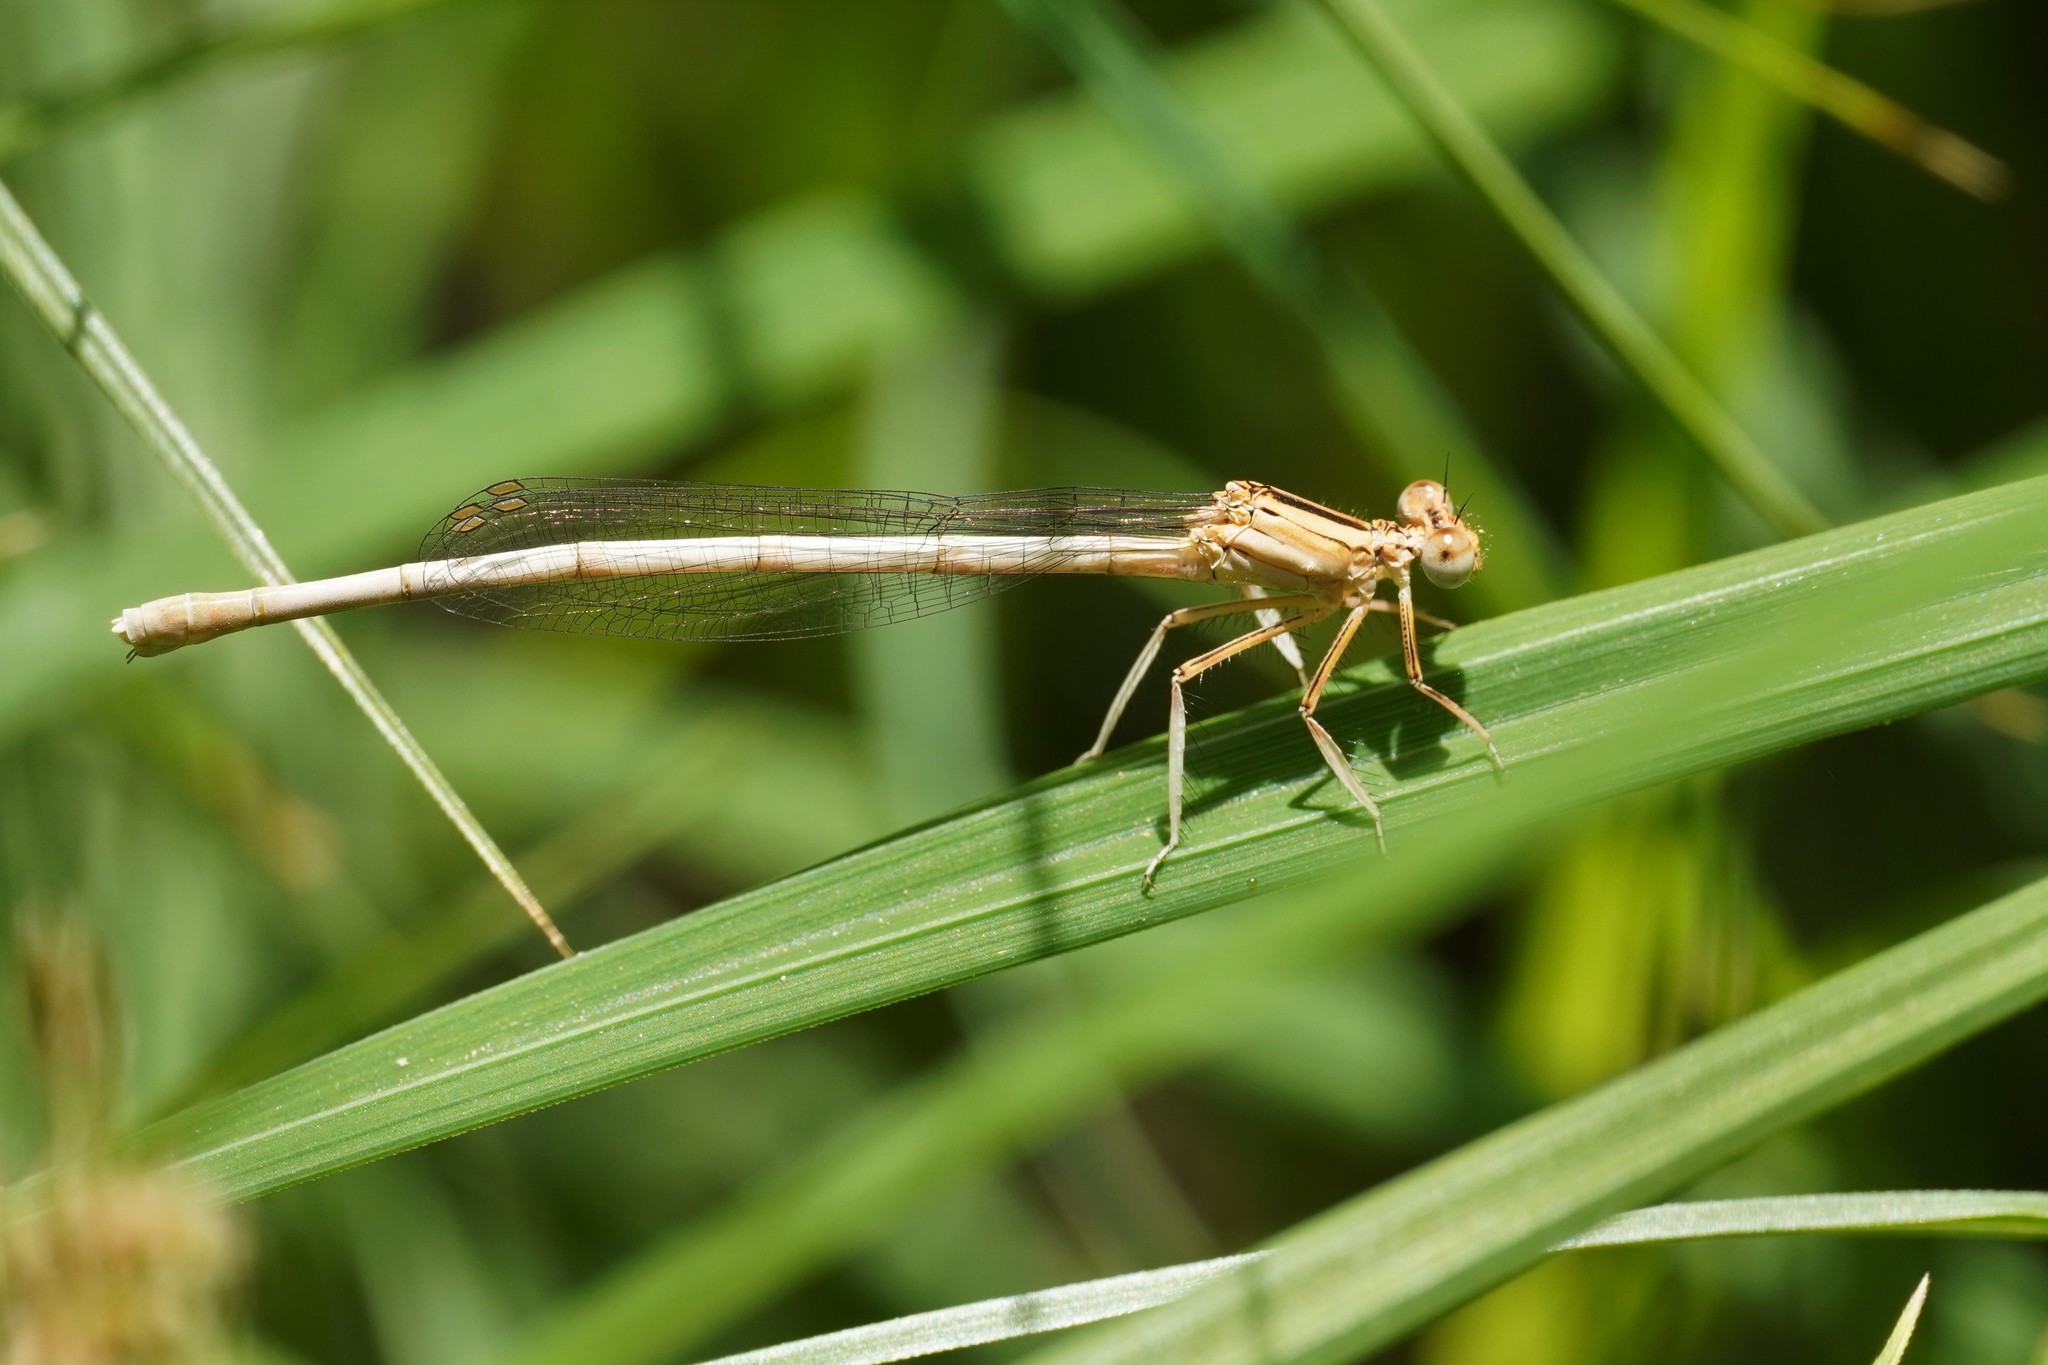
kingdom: Animalia
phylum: Arthropoda
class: Insecta
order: Odonata
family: Platycnemididae
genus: Platycnemis
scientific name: Platycnemis latipes
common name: White featherleg
